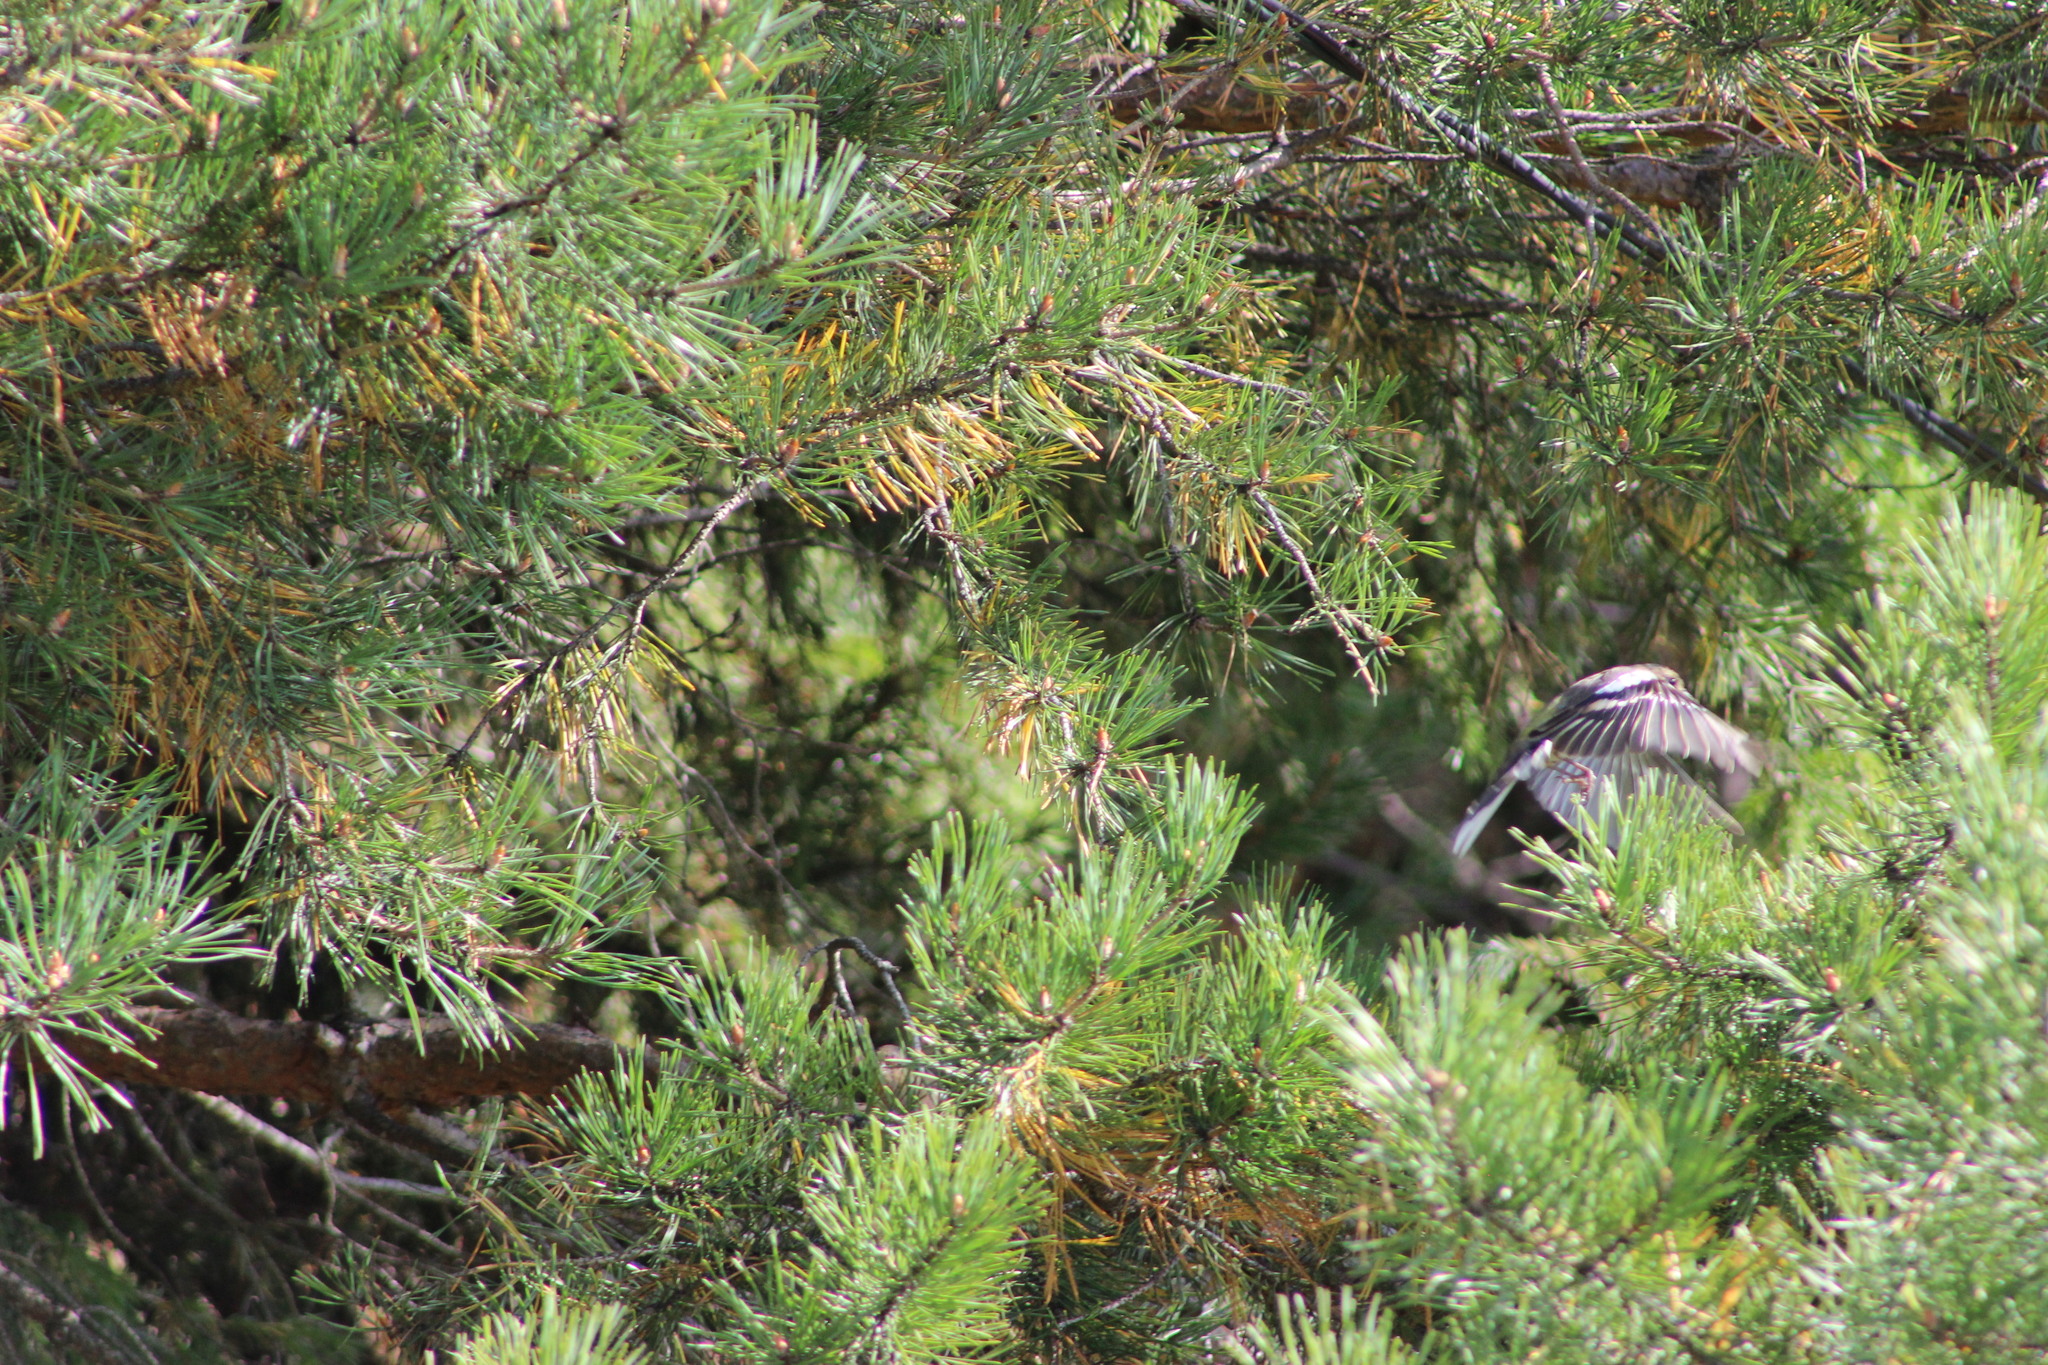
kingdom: Animalia
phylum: Chordata
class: Aves
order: Passeriformes
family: Fringillidae
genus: Fringilla
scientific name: Fringilla coelebs
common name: Common chaffinch
